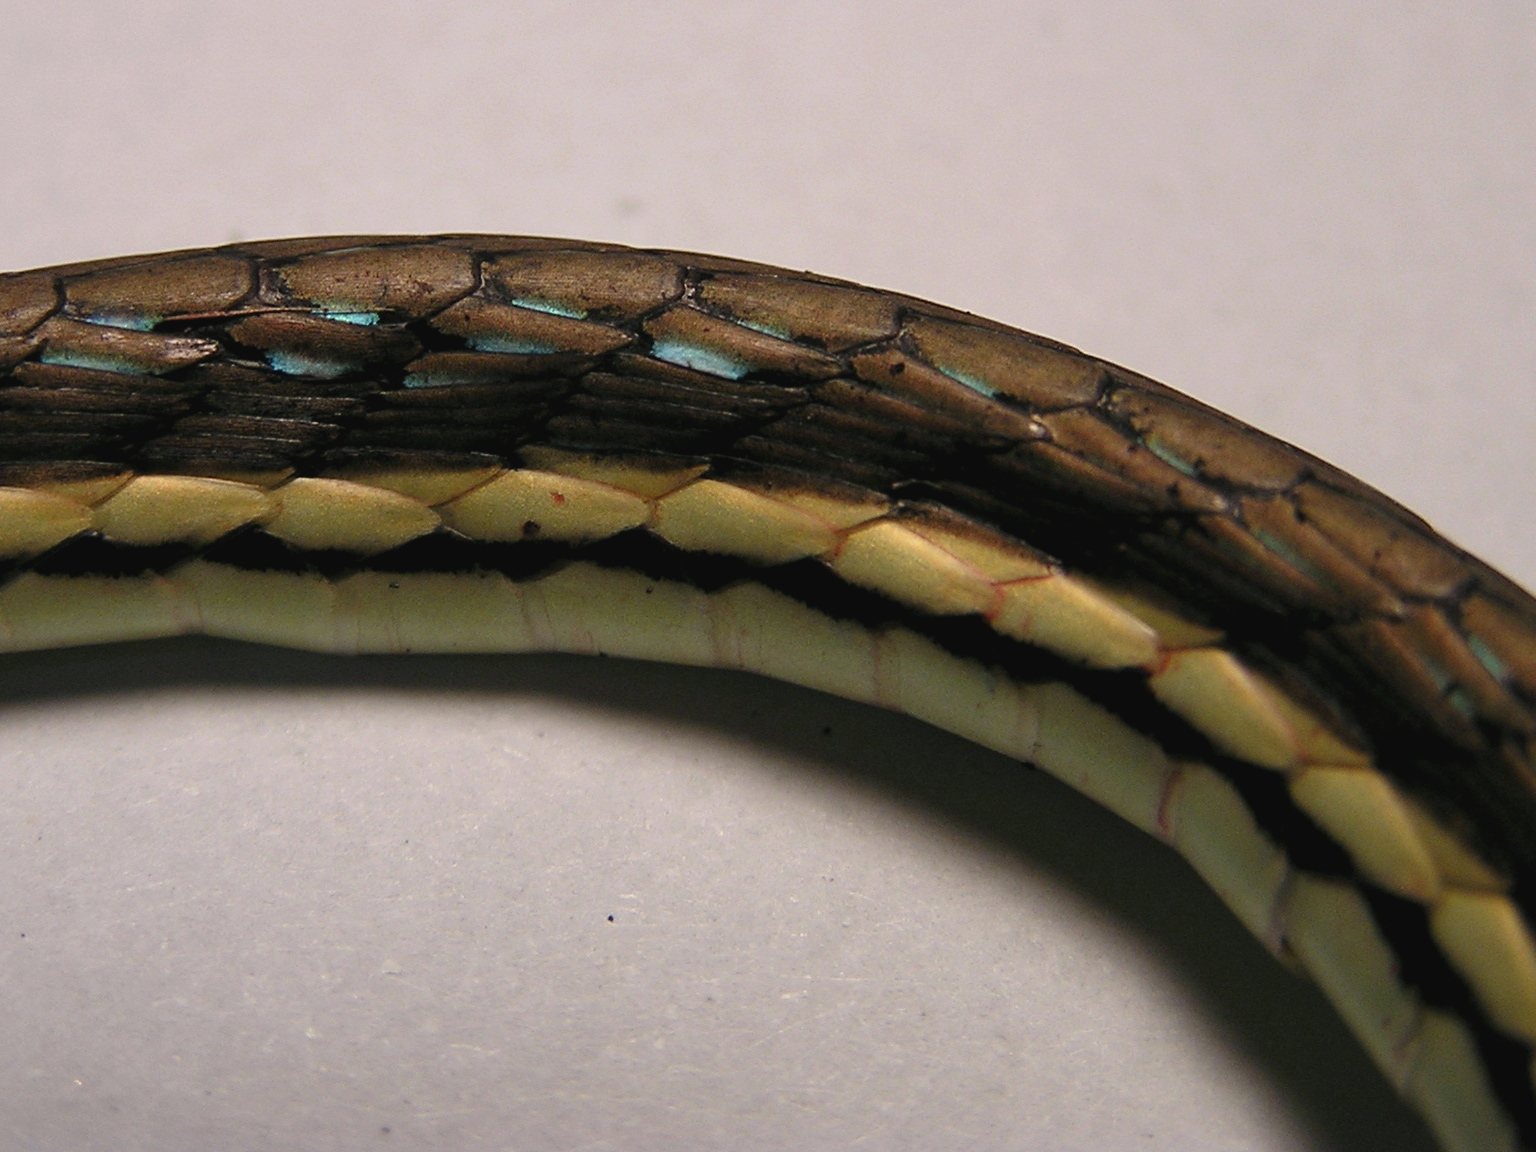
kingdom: Animalia
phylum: Chordata
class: Squamata
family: Colubridae
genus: Dendrelaphis
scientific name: Dendrelaphis pictus
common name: Indonesian bronze-back
